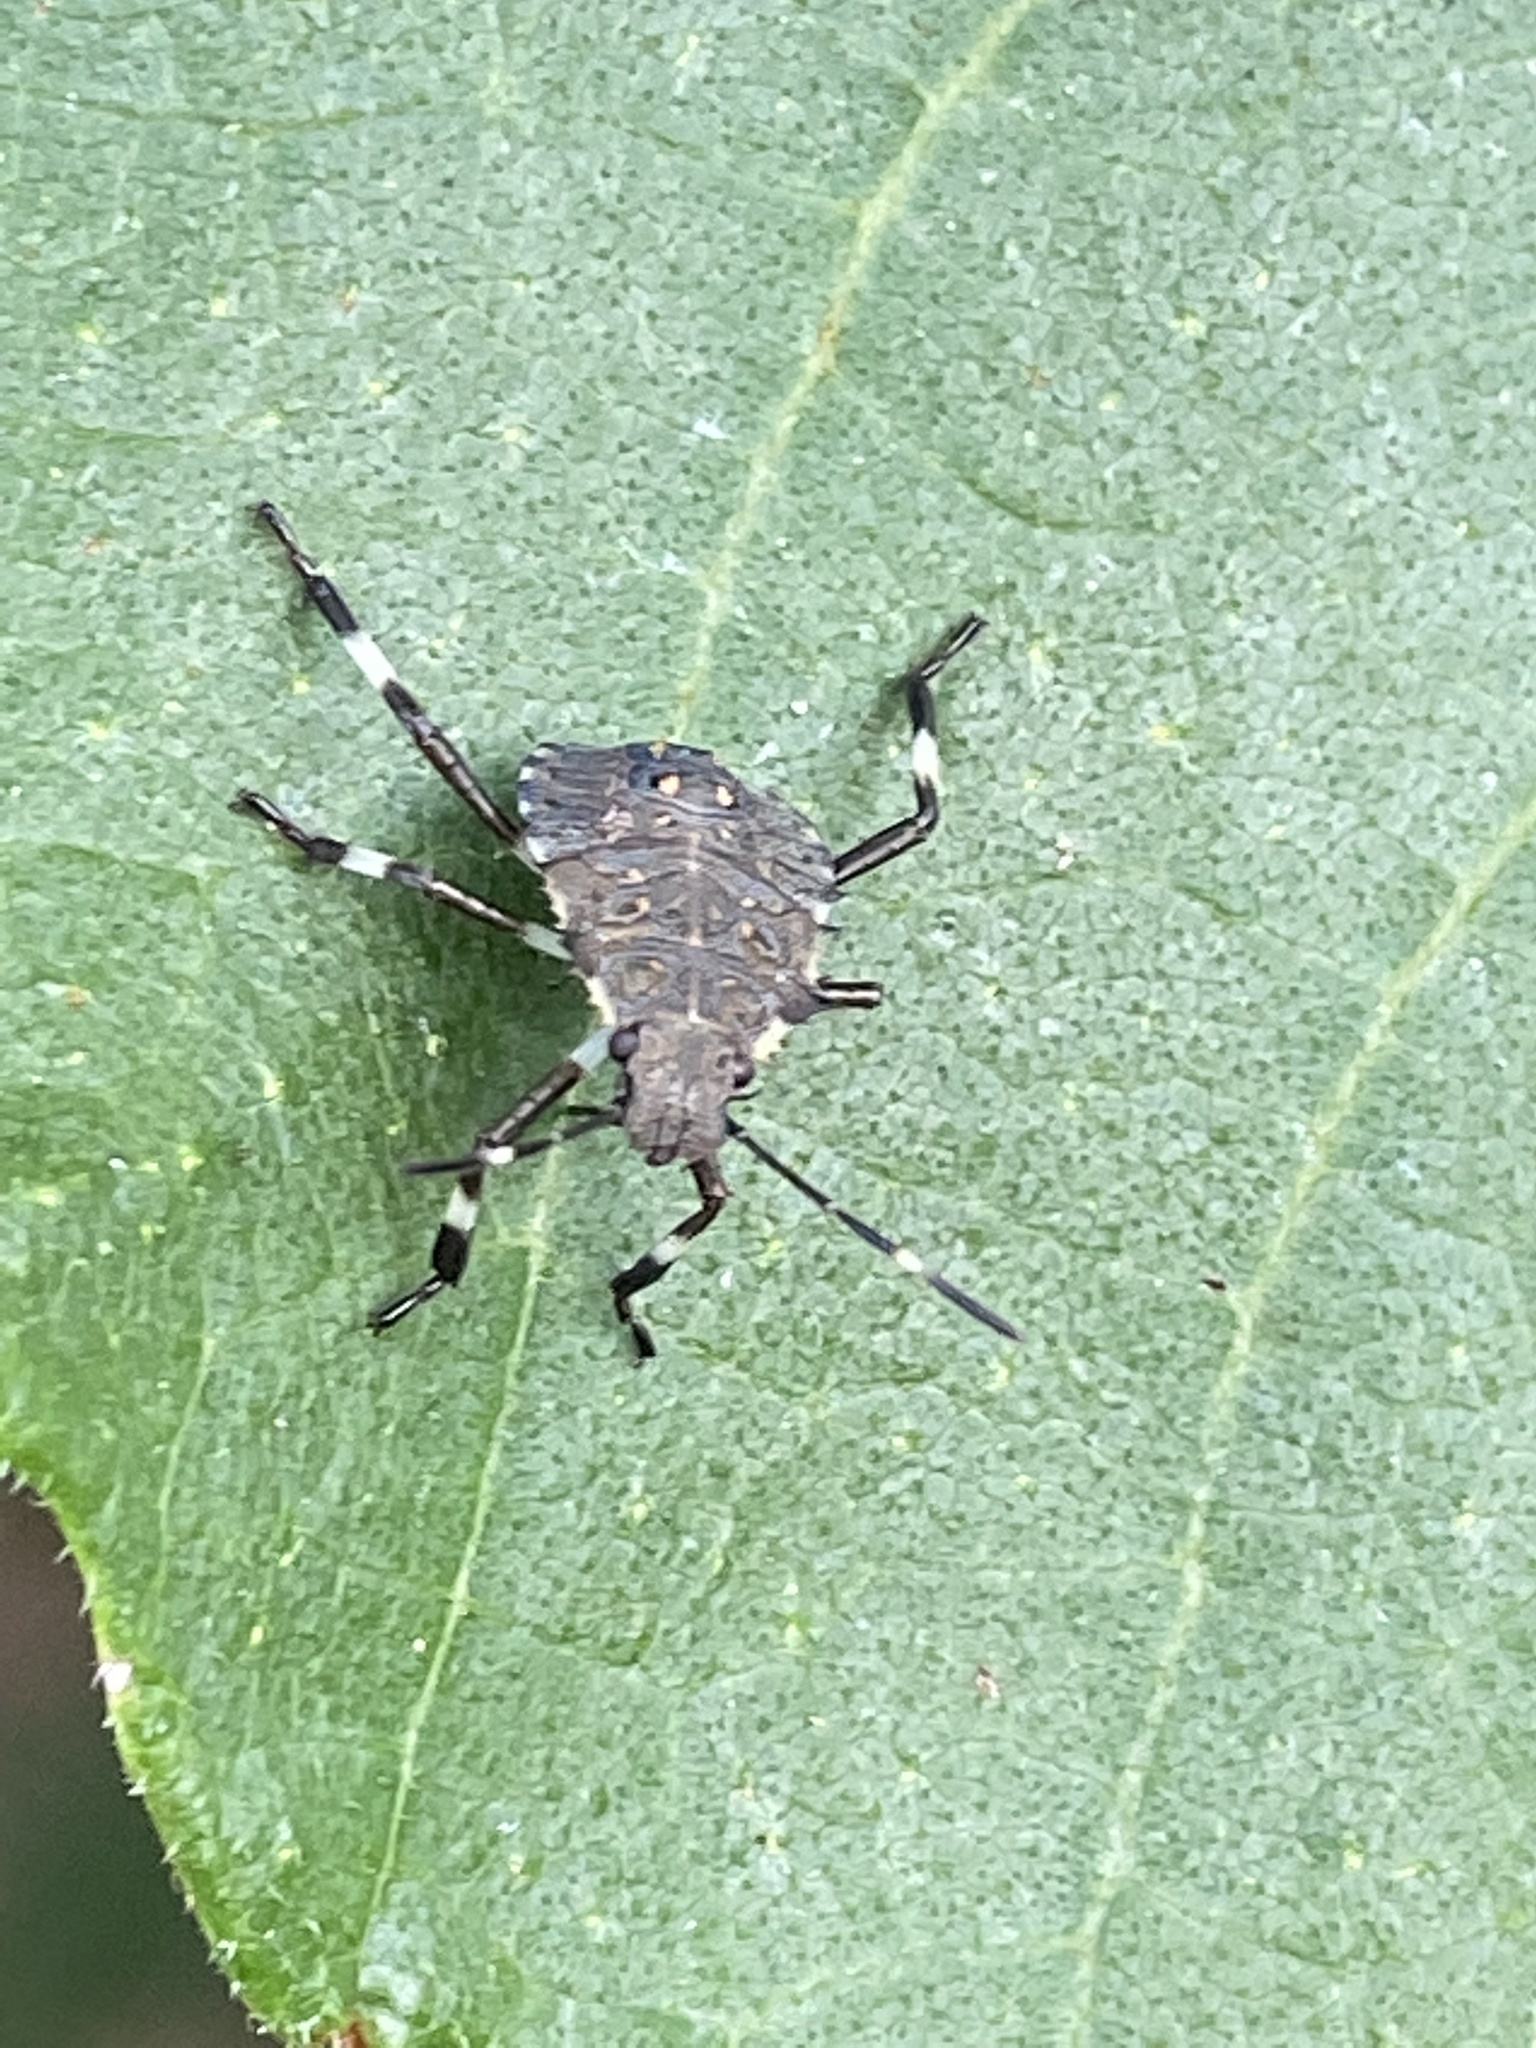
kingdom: Animalia
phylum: Arthropoda
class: Insecta
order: Hemiptera
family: Pentatomidae
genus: Halyomorpha
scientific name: Halyomorpha halys
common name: Brown marmorated stink bug
